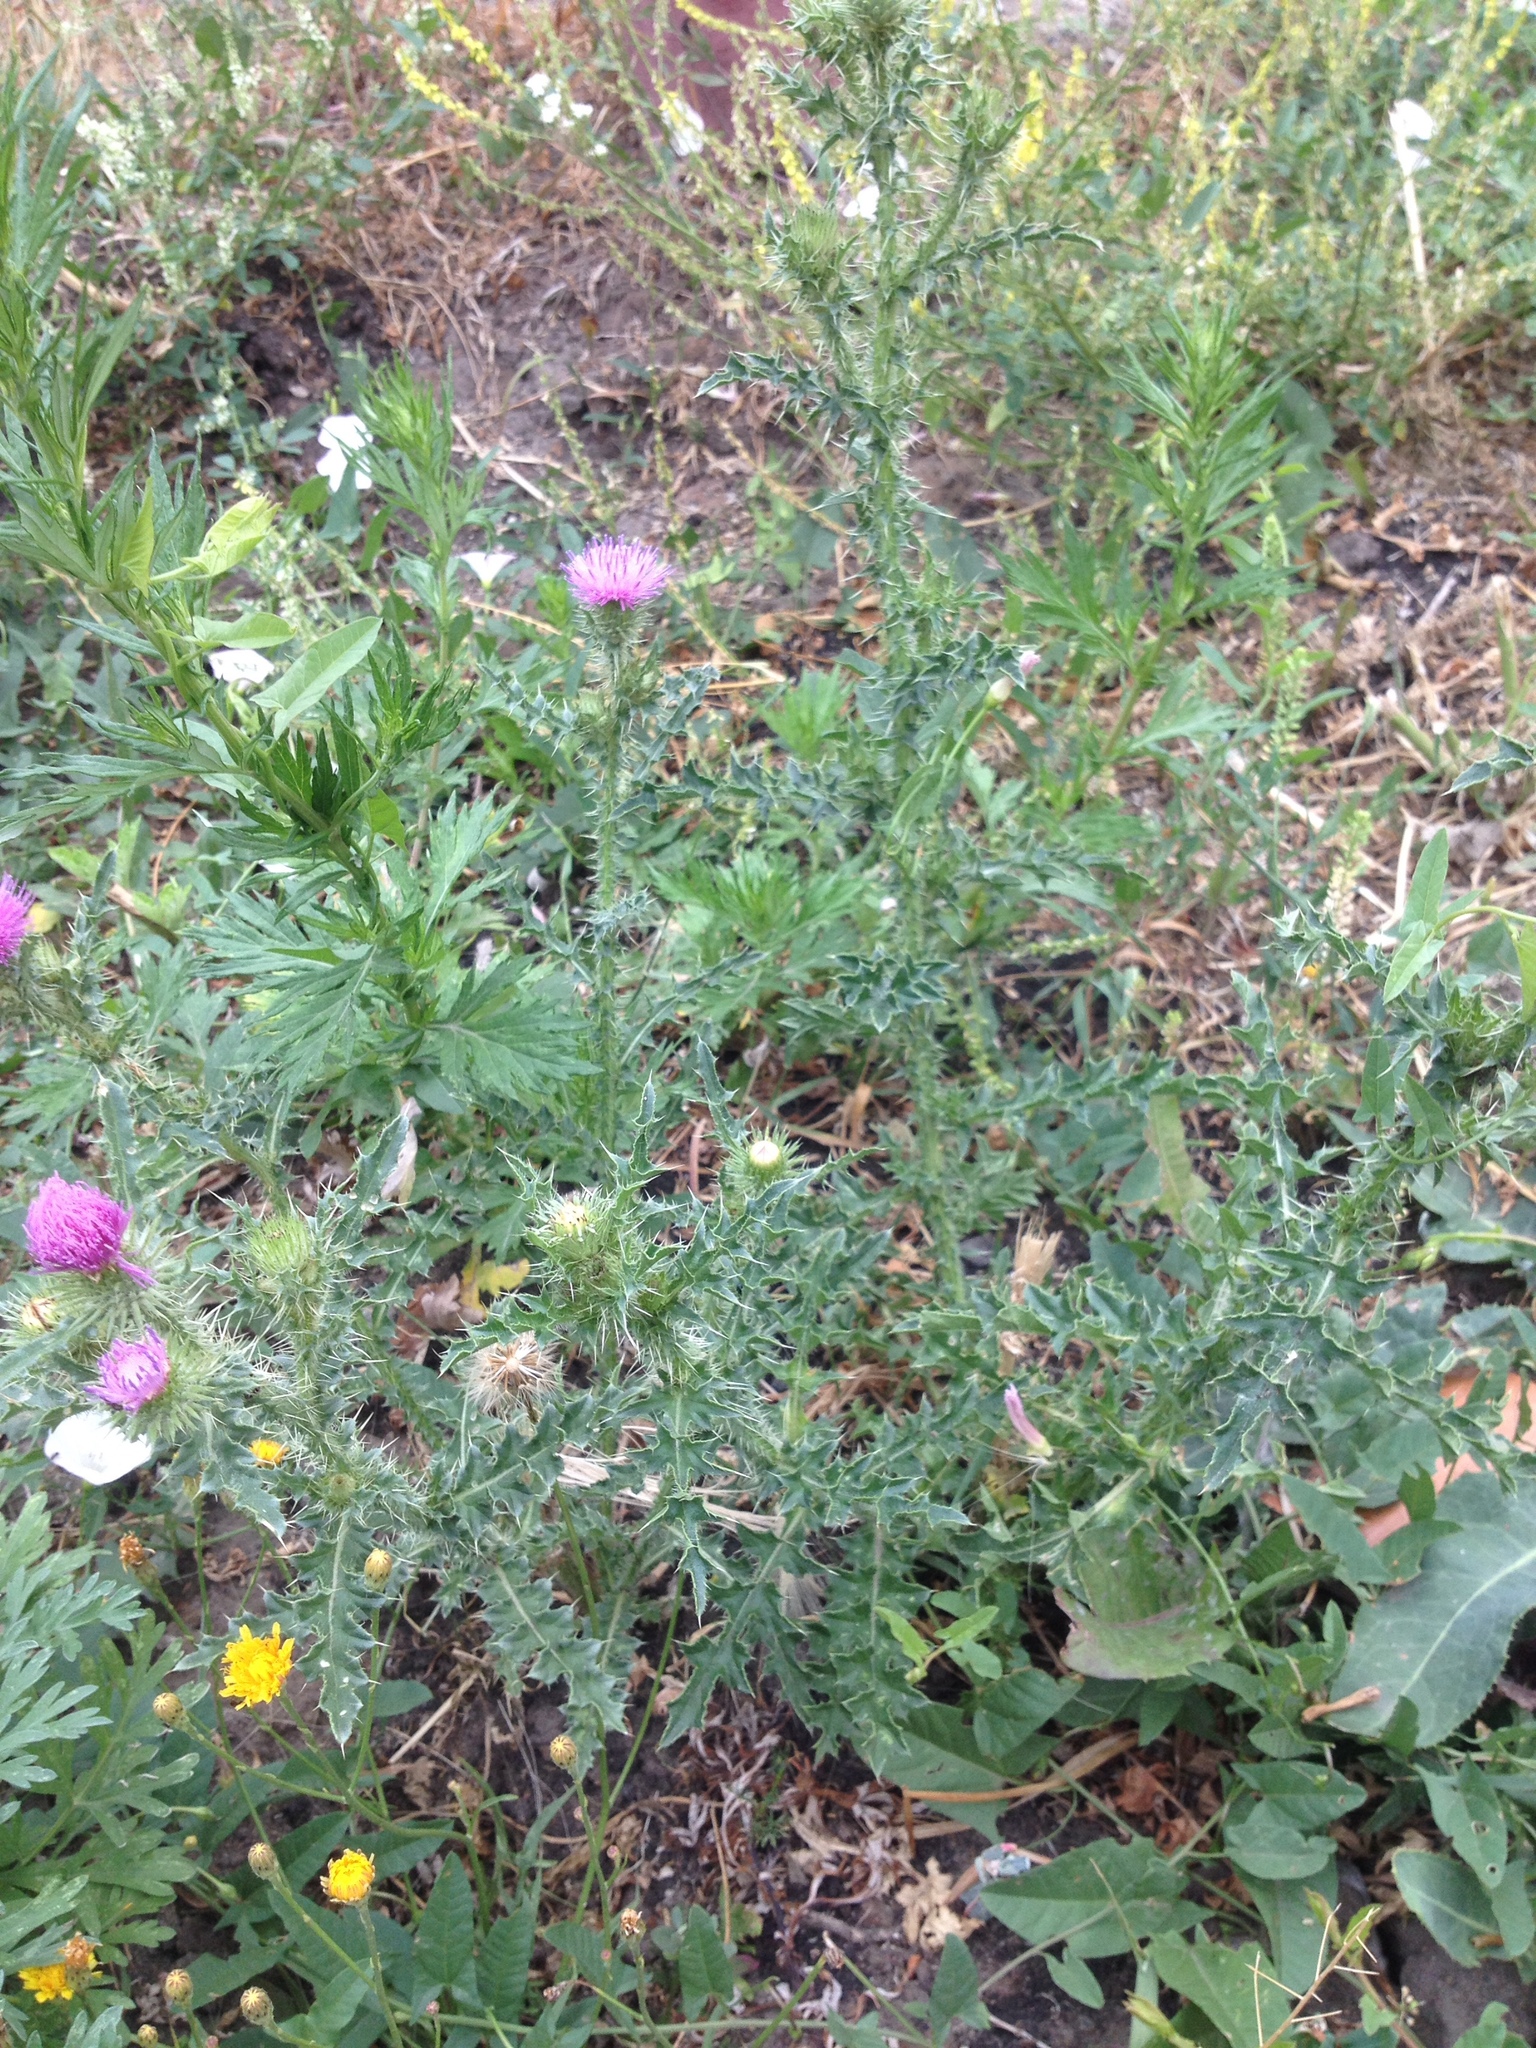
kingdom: Plantae
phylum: Tracheophyta
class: Magnoliopsida
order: Asterales
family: Asteraceae
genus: Carduus
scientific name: Carduus acanthoides
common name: Plumeless thistle
